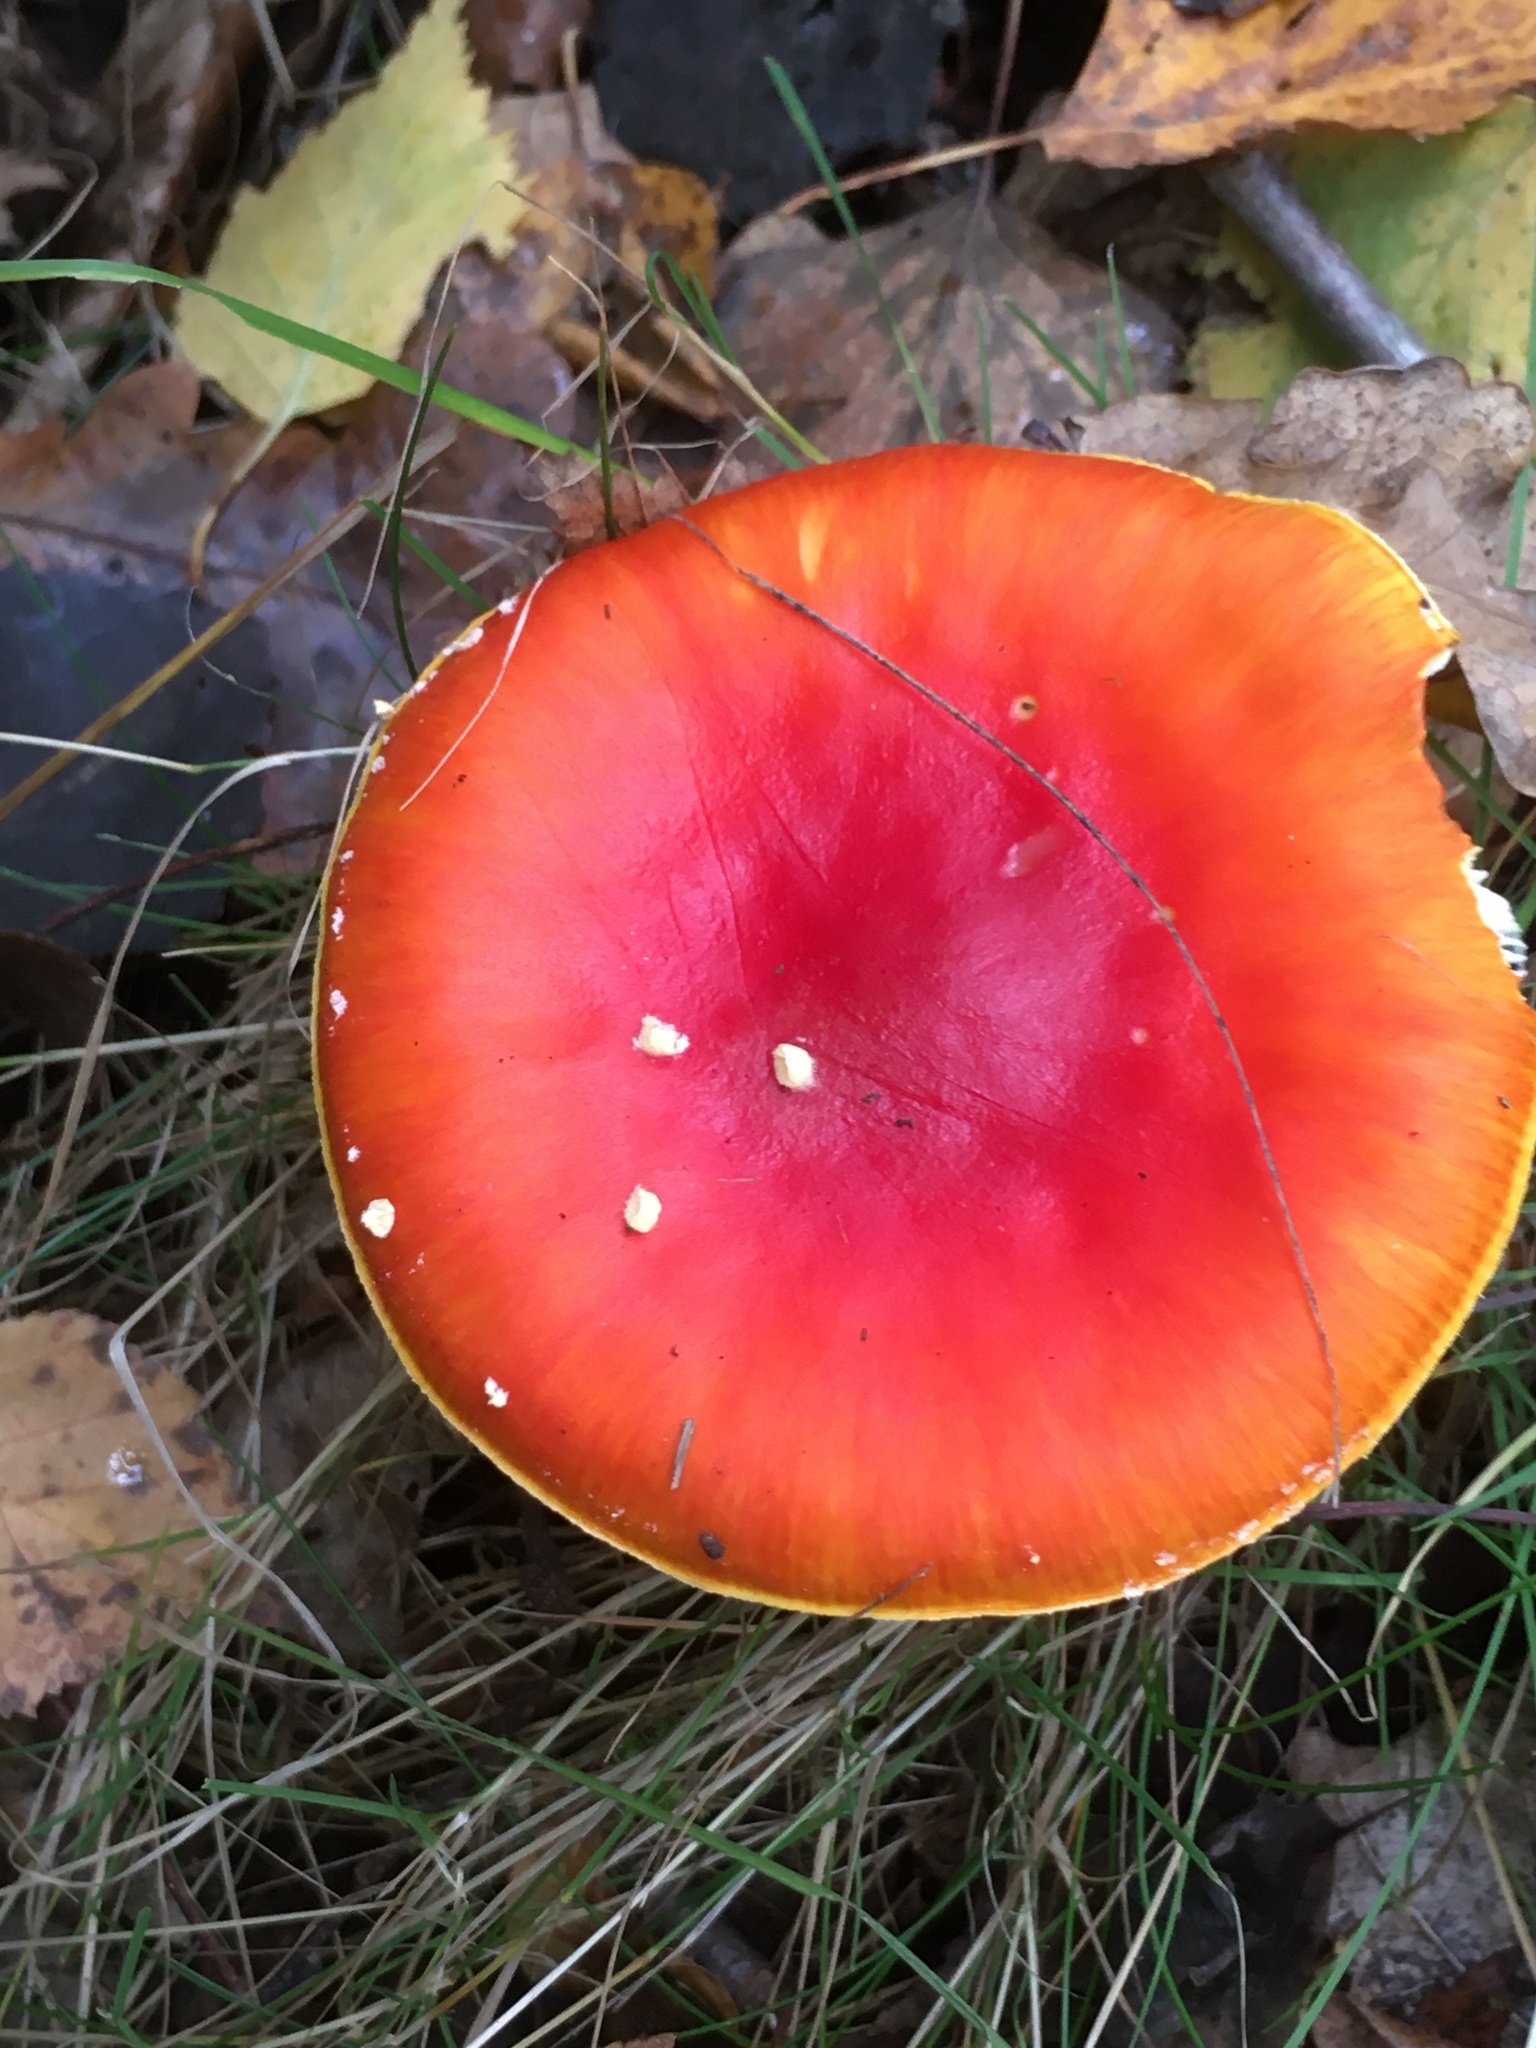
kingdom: Fungi
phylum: Basidiomycota
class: Agaricomycetes
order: Agaricales
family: Amanitaceae
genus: Amanita
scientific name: Amanita muscaria
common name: Fly agaric
